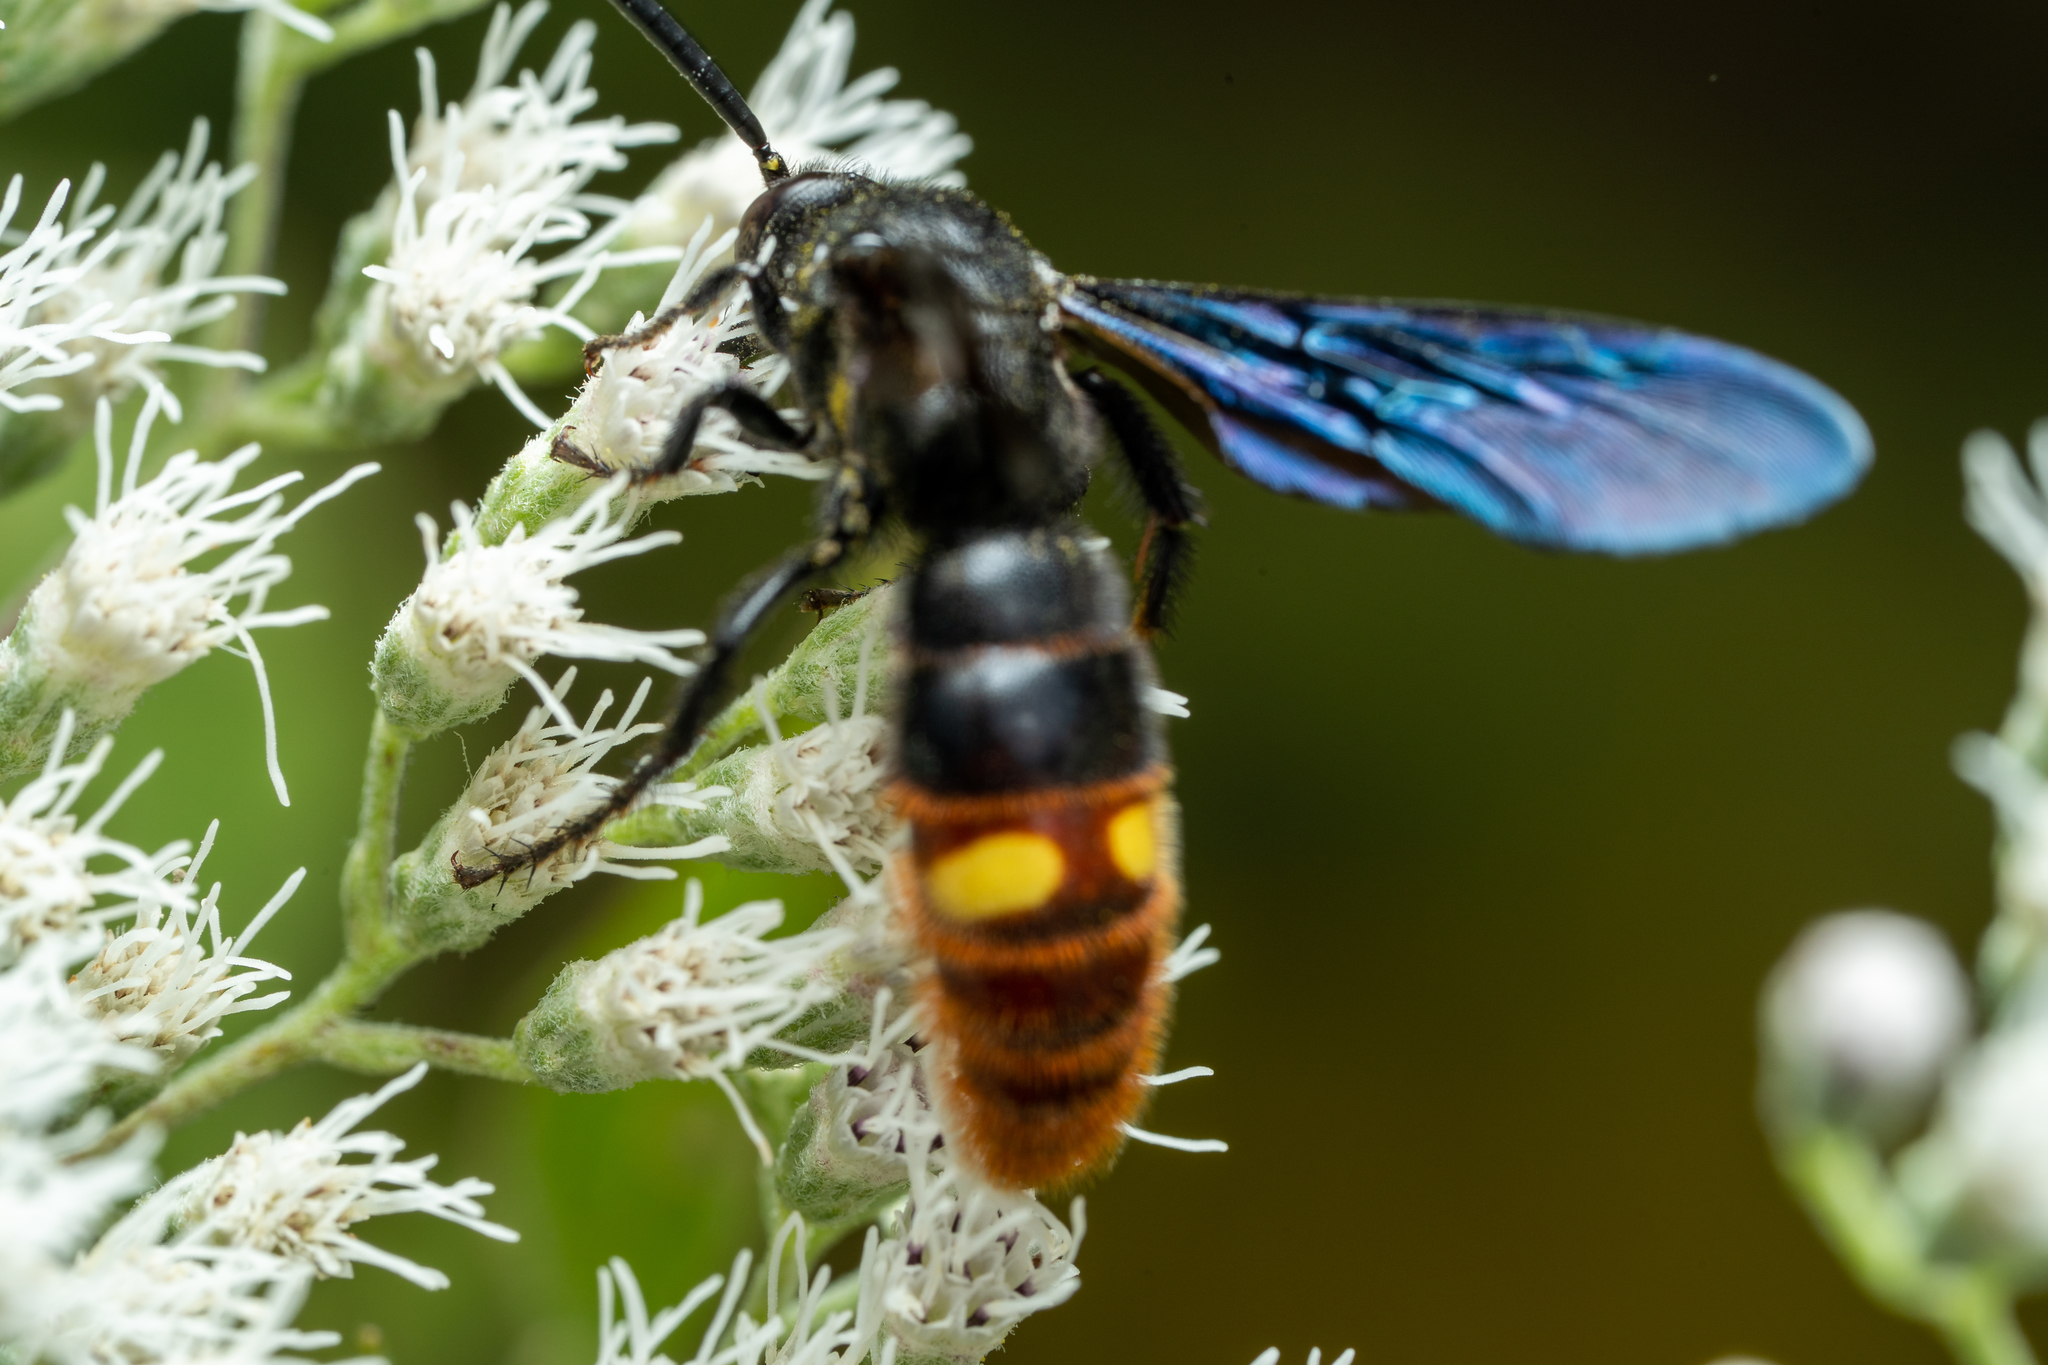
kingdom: Animalia
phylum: Arthropoda
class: Insecta
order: Hymenoptera
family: Scoliidae
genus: Scolia
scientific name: Scolia dubia
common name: Blue-winged scoliid wasp
